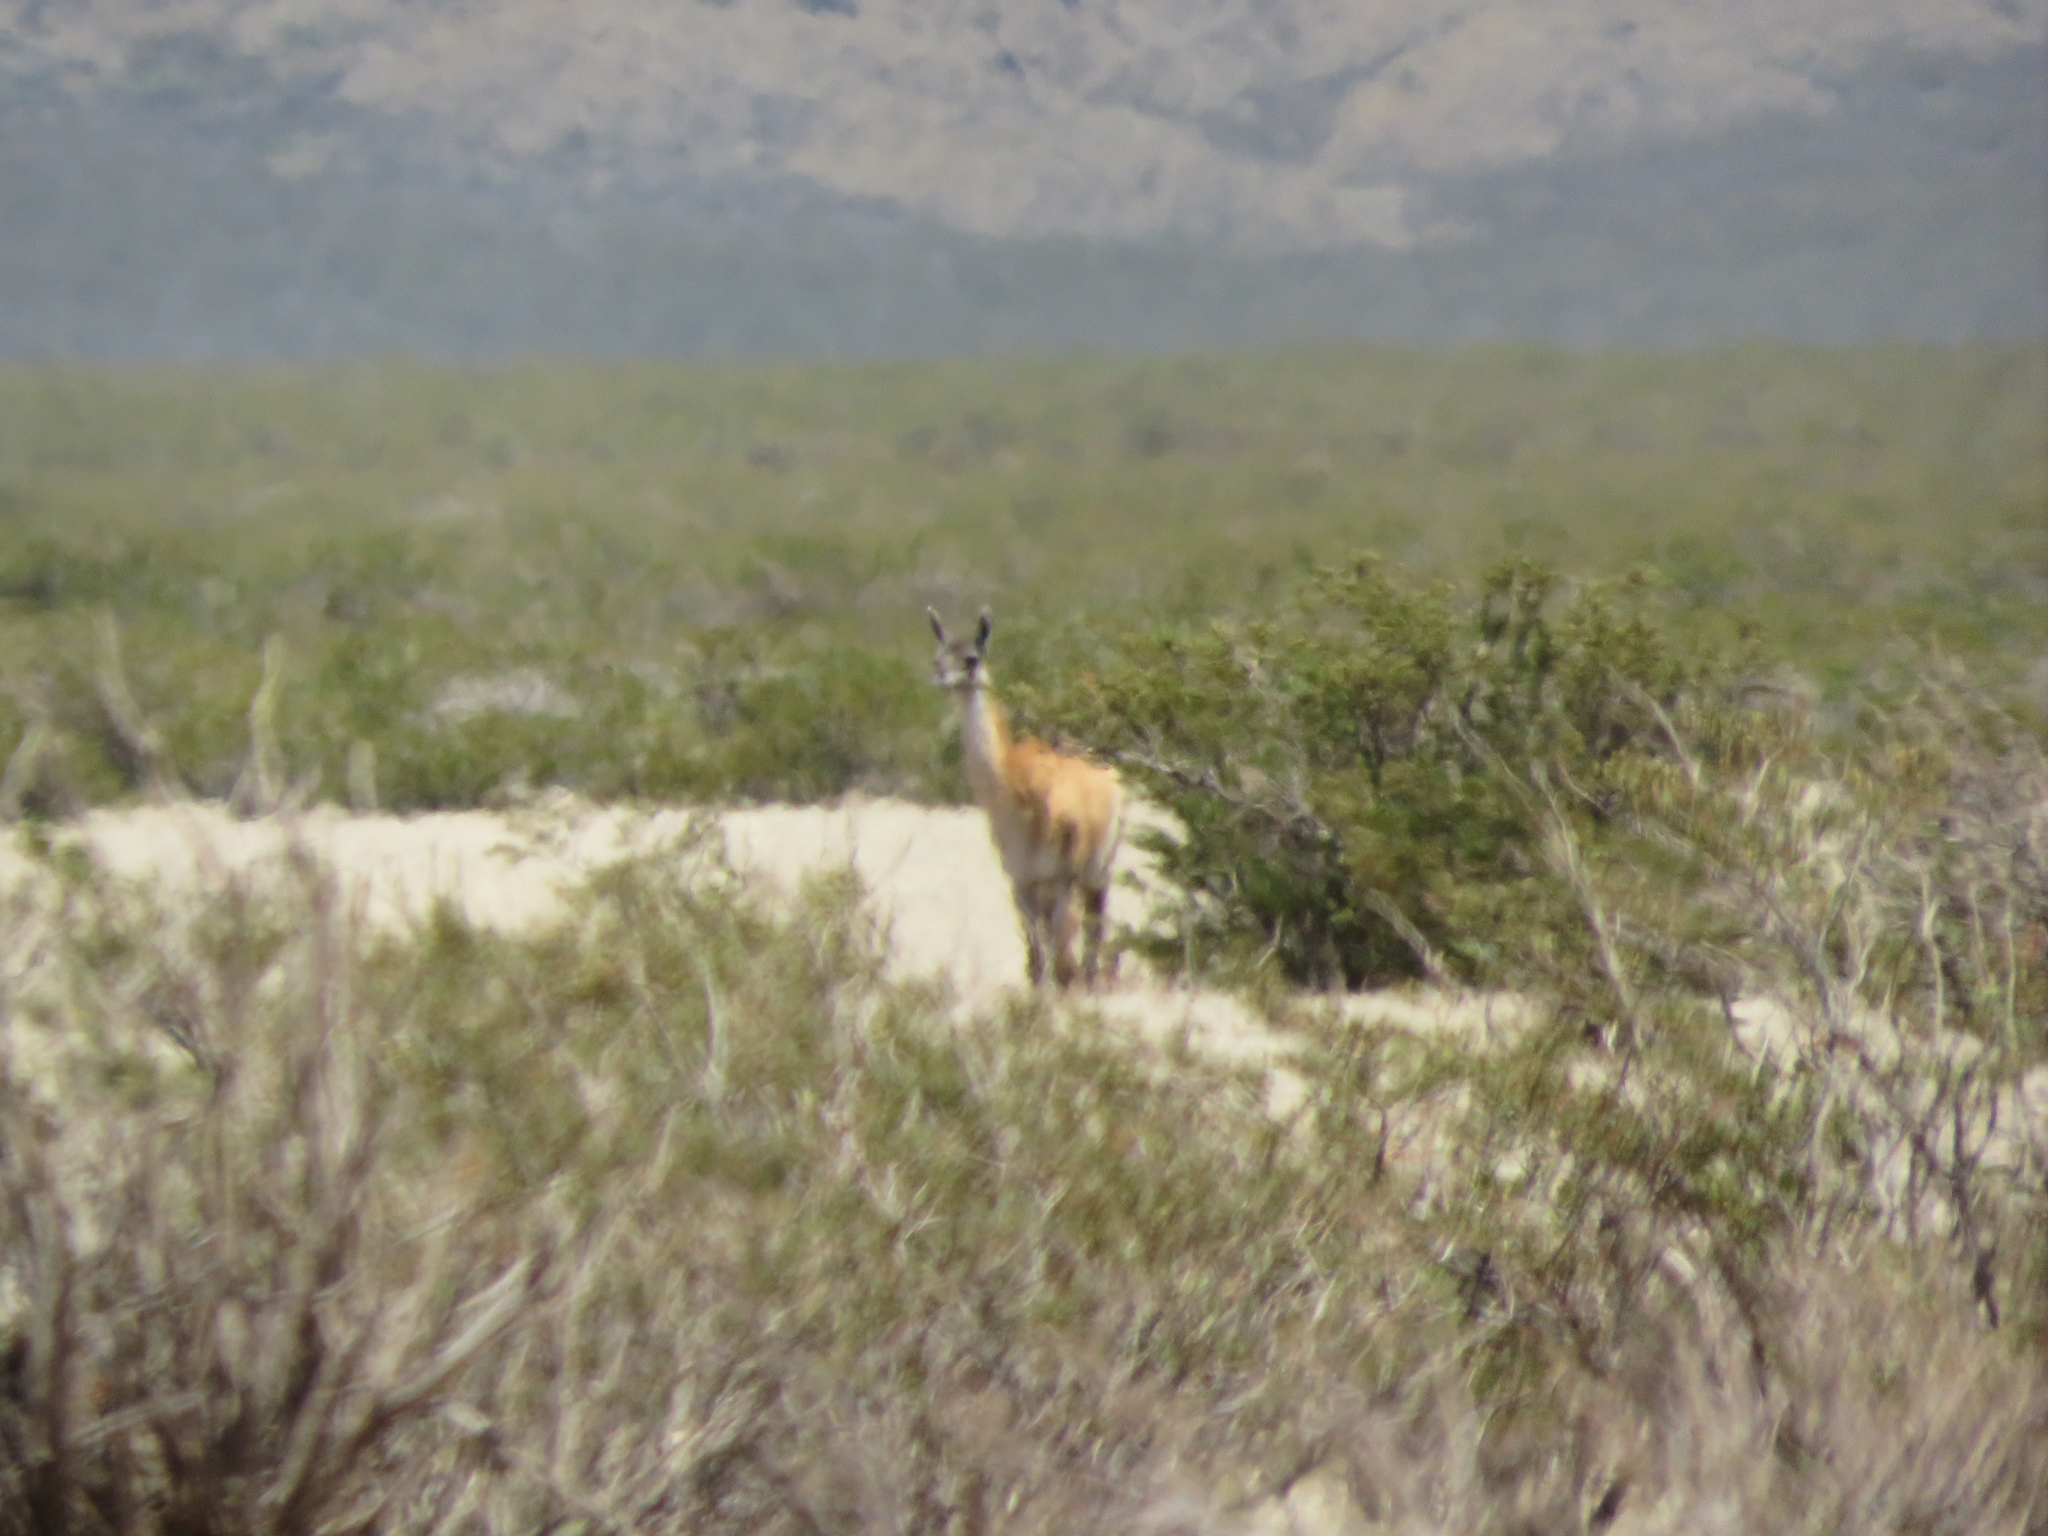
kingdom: Animalia
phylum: Chordata
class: Mammalia
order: Artiodactyla
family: Camelidae
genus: Lama
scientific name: Lama glama
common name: Llama
